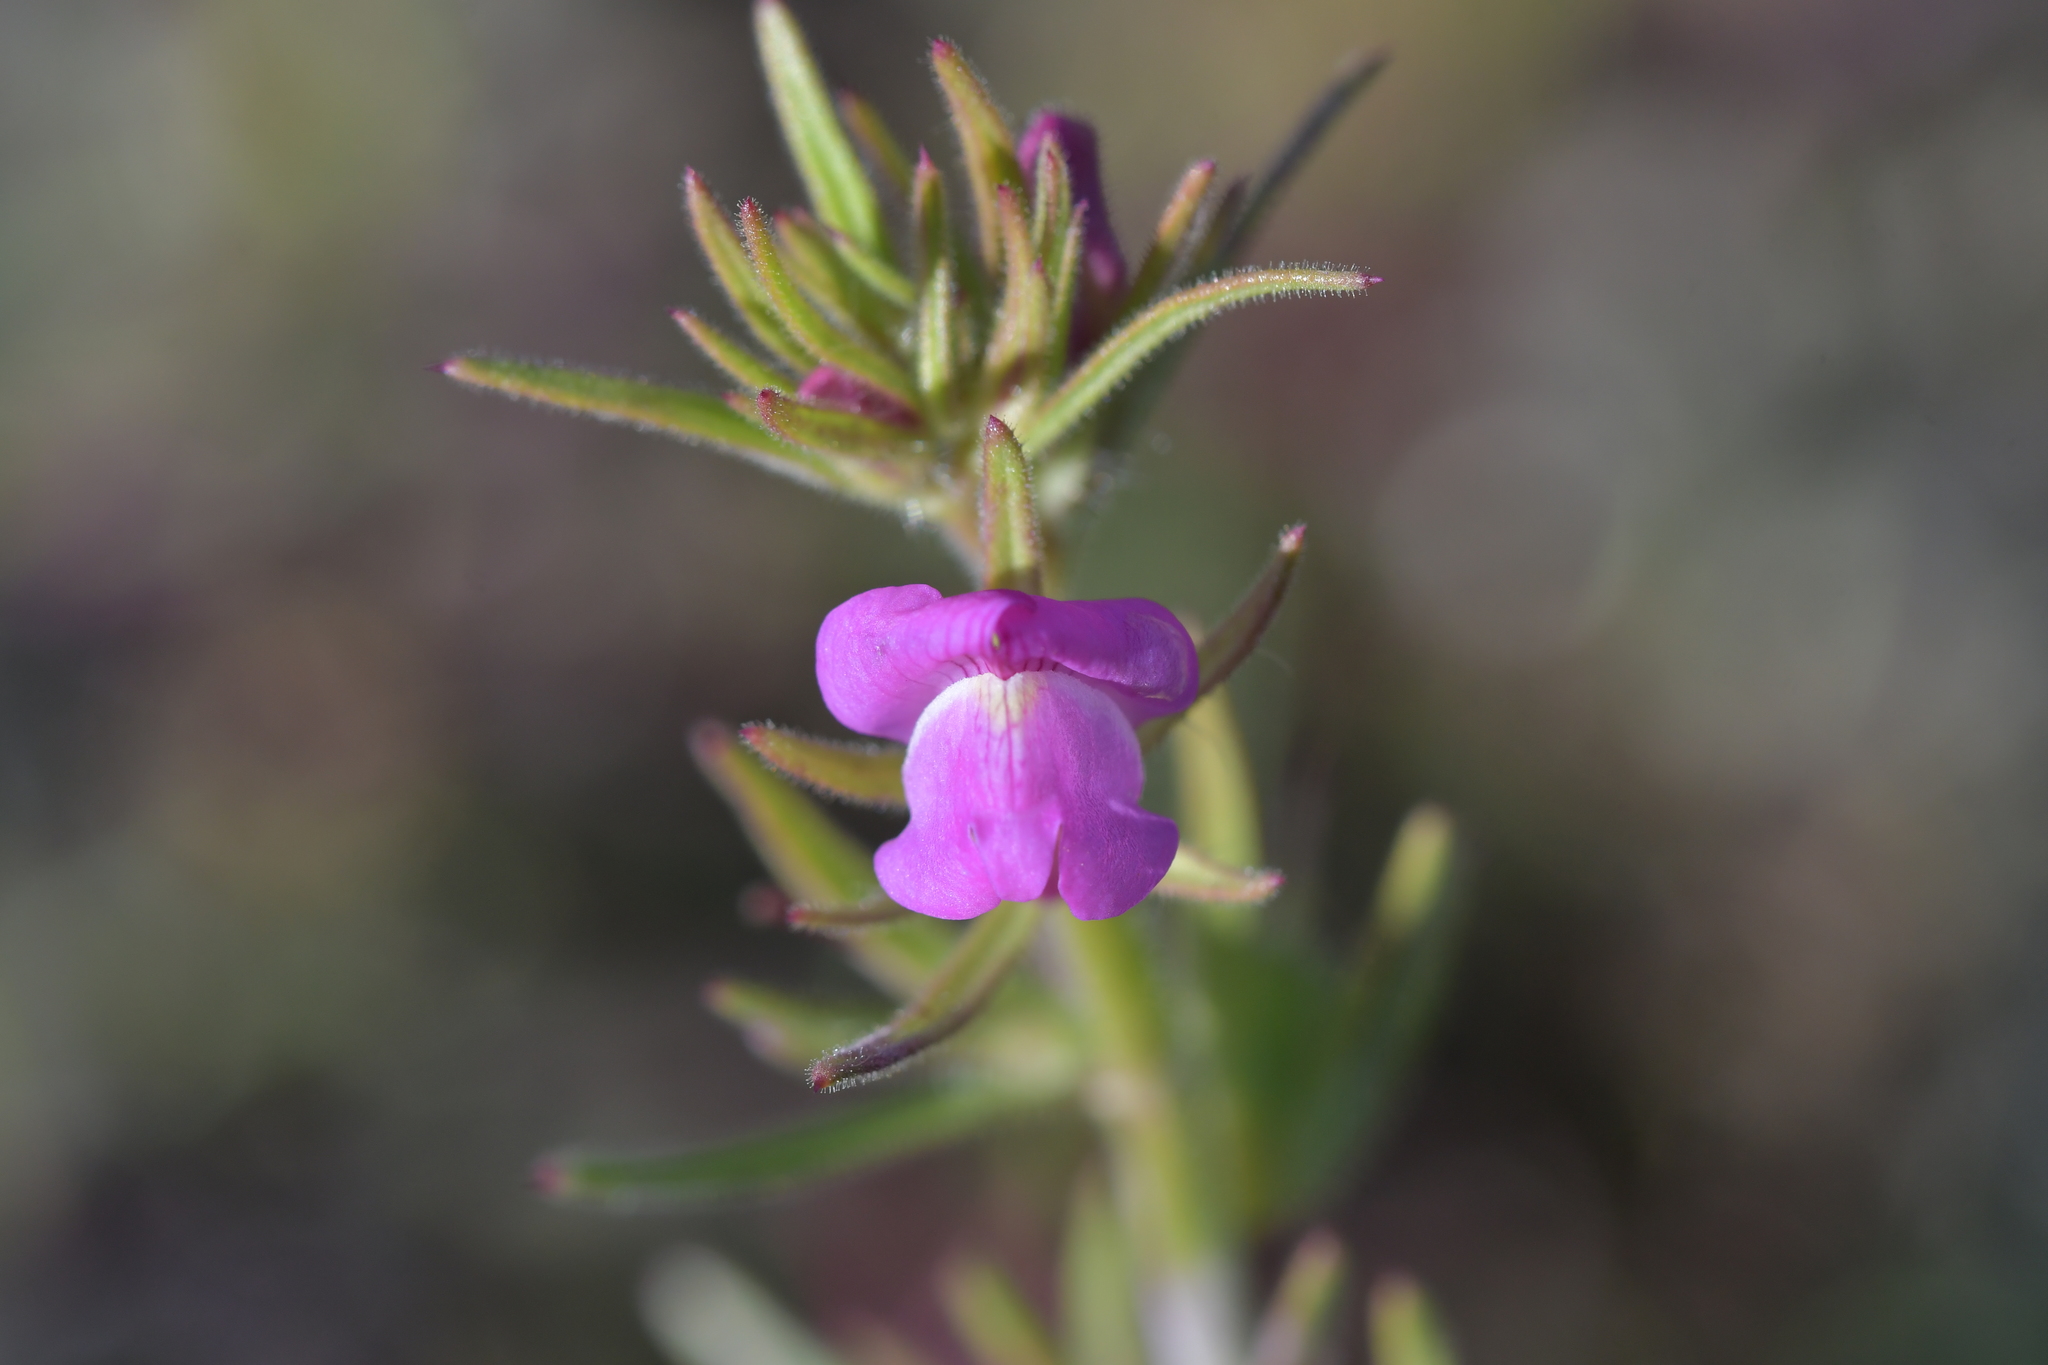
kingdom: Plantae
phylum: Tracheophyta
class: Magnoliopsida
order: Lamiales
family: Plantaginaceae
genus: Misopates
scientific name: Misopates orontium
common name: Weasel's-snout
